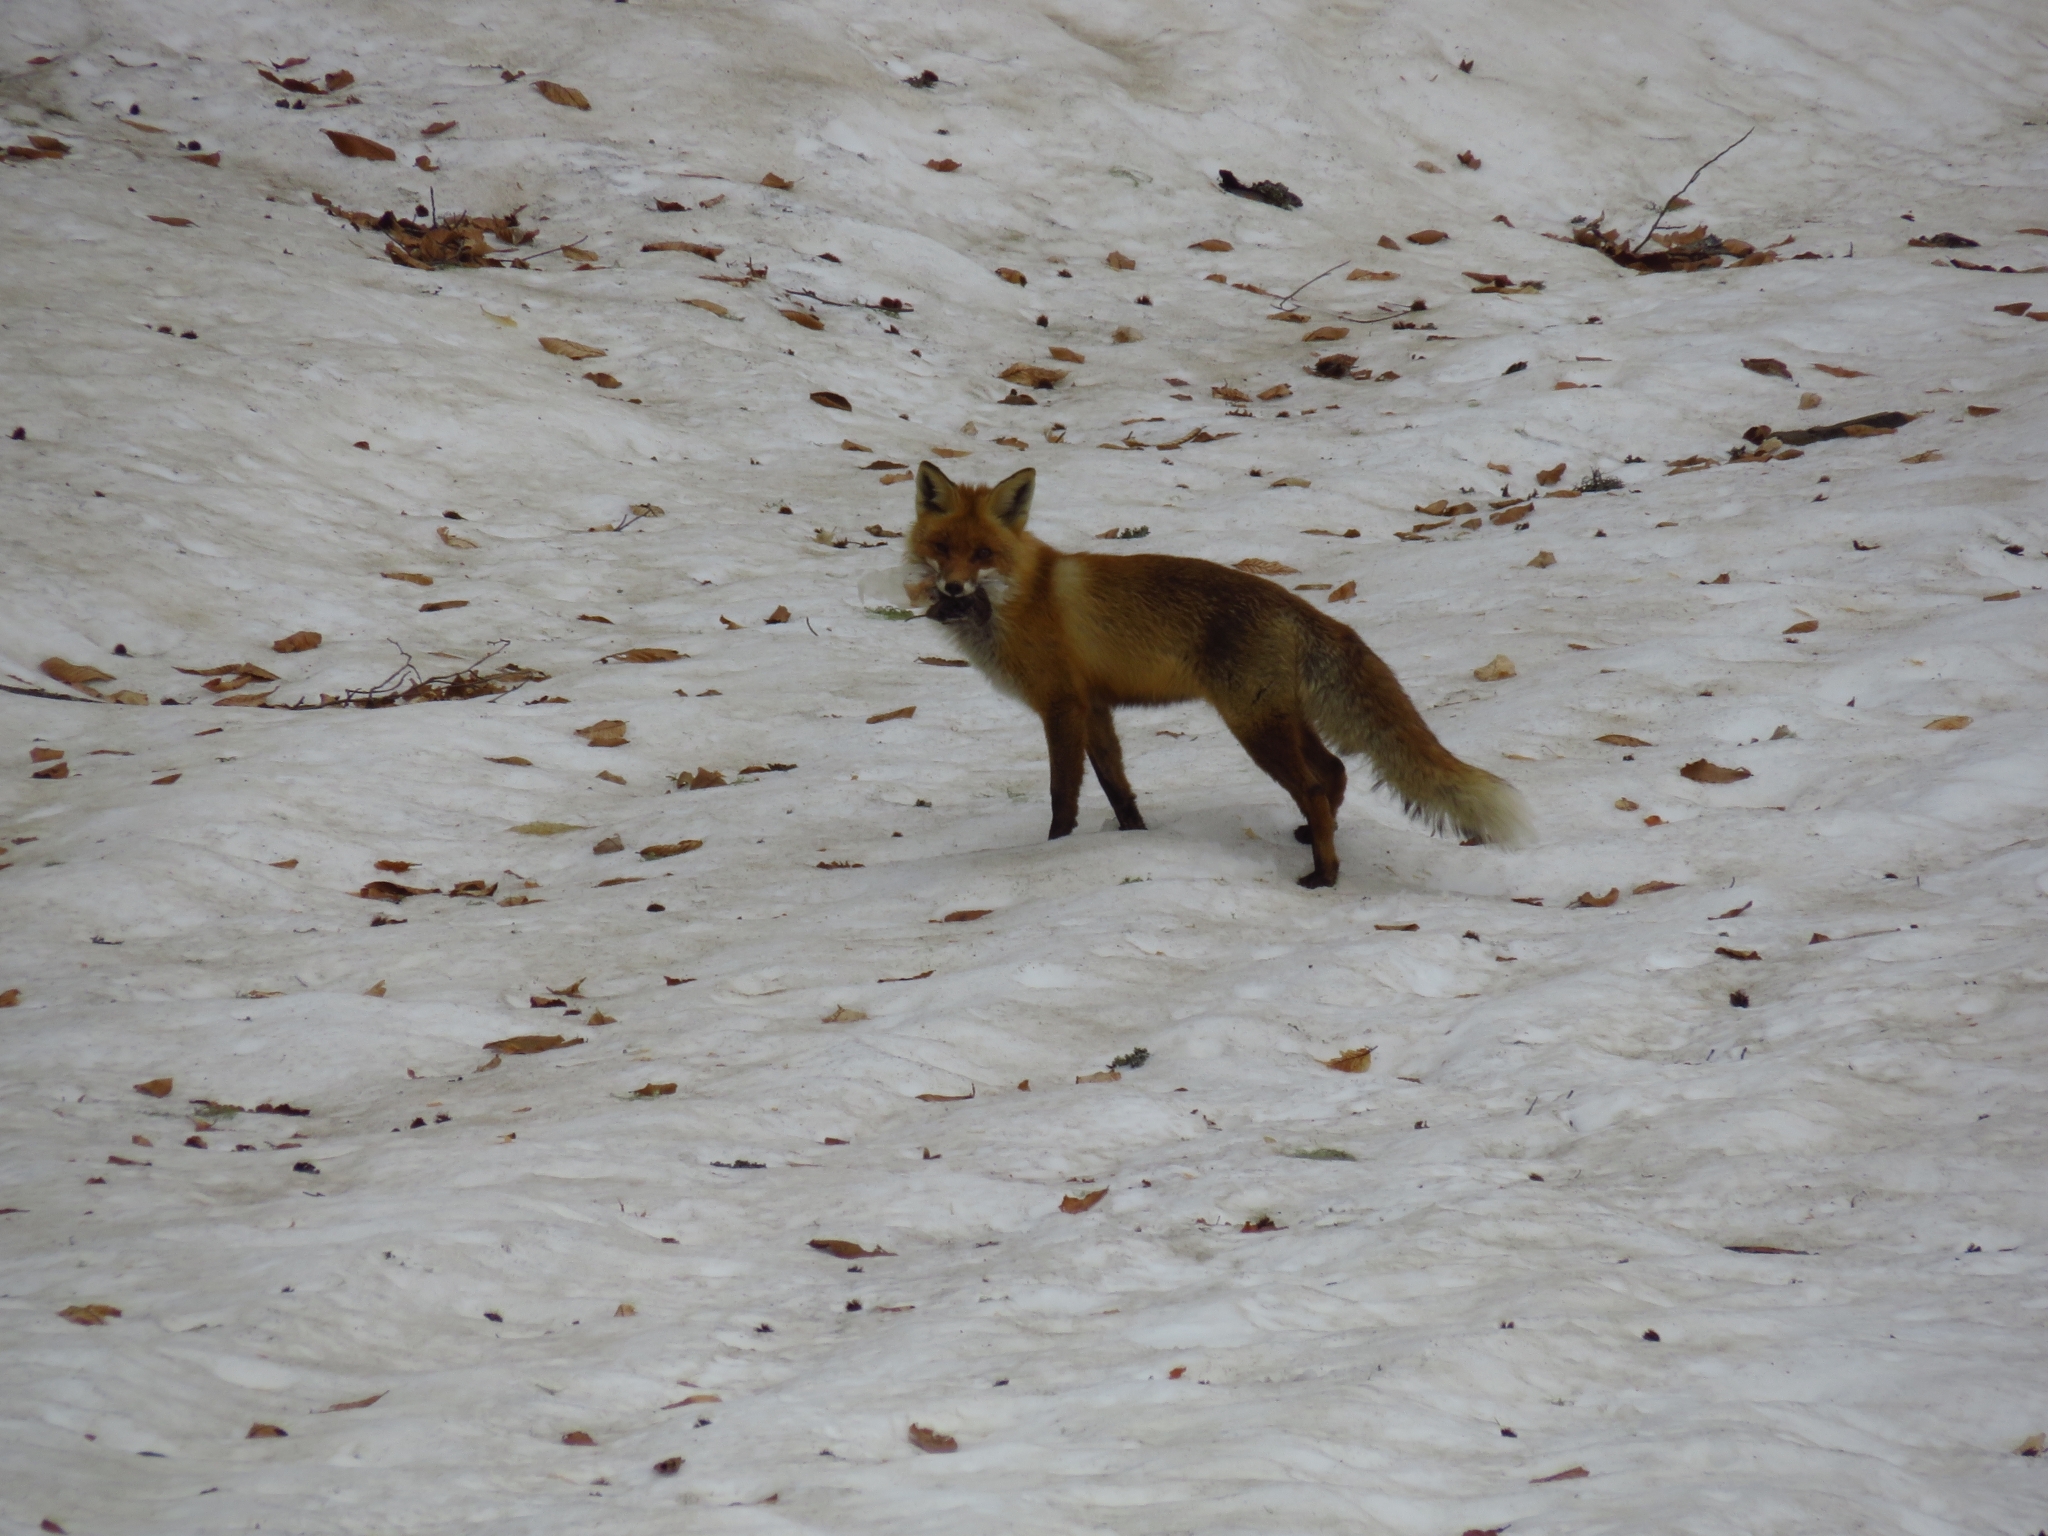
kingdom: Animalia
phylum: Chordata
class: Mammalia
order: Carnivora
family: Canidae
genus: Vulpes
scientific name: Vulpes vulpes
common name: Red fox
